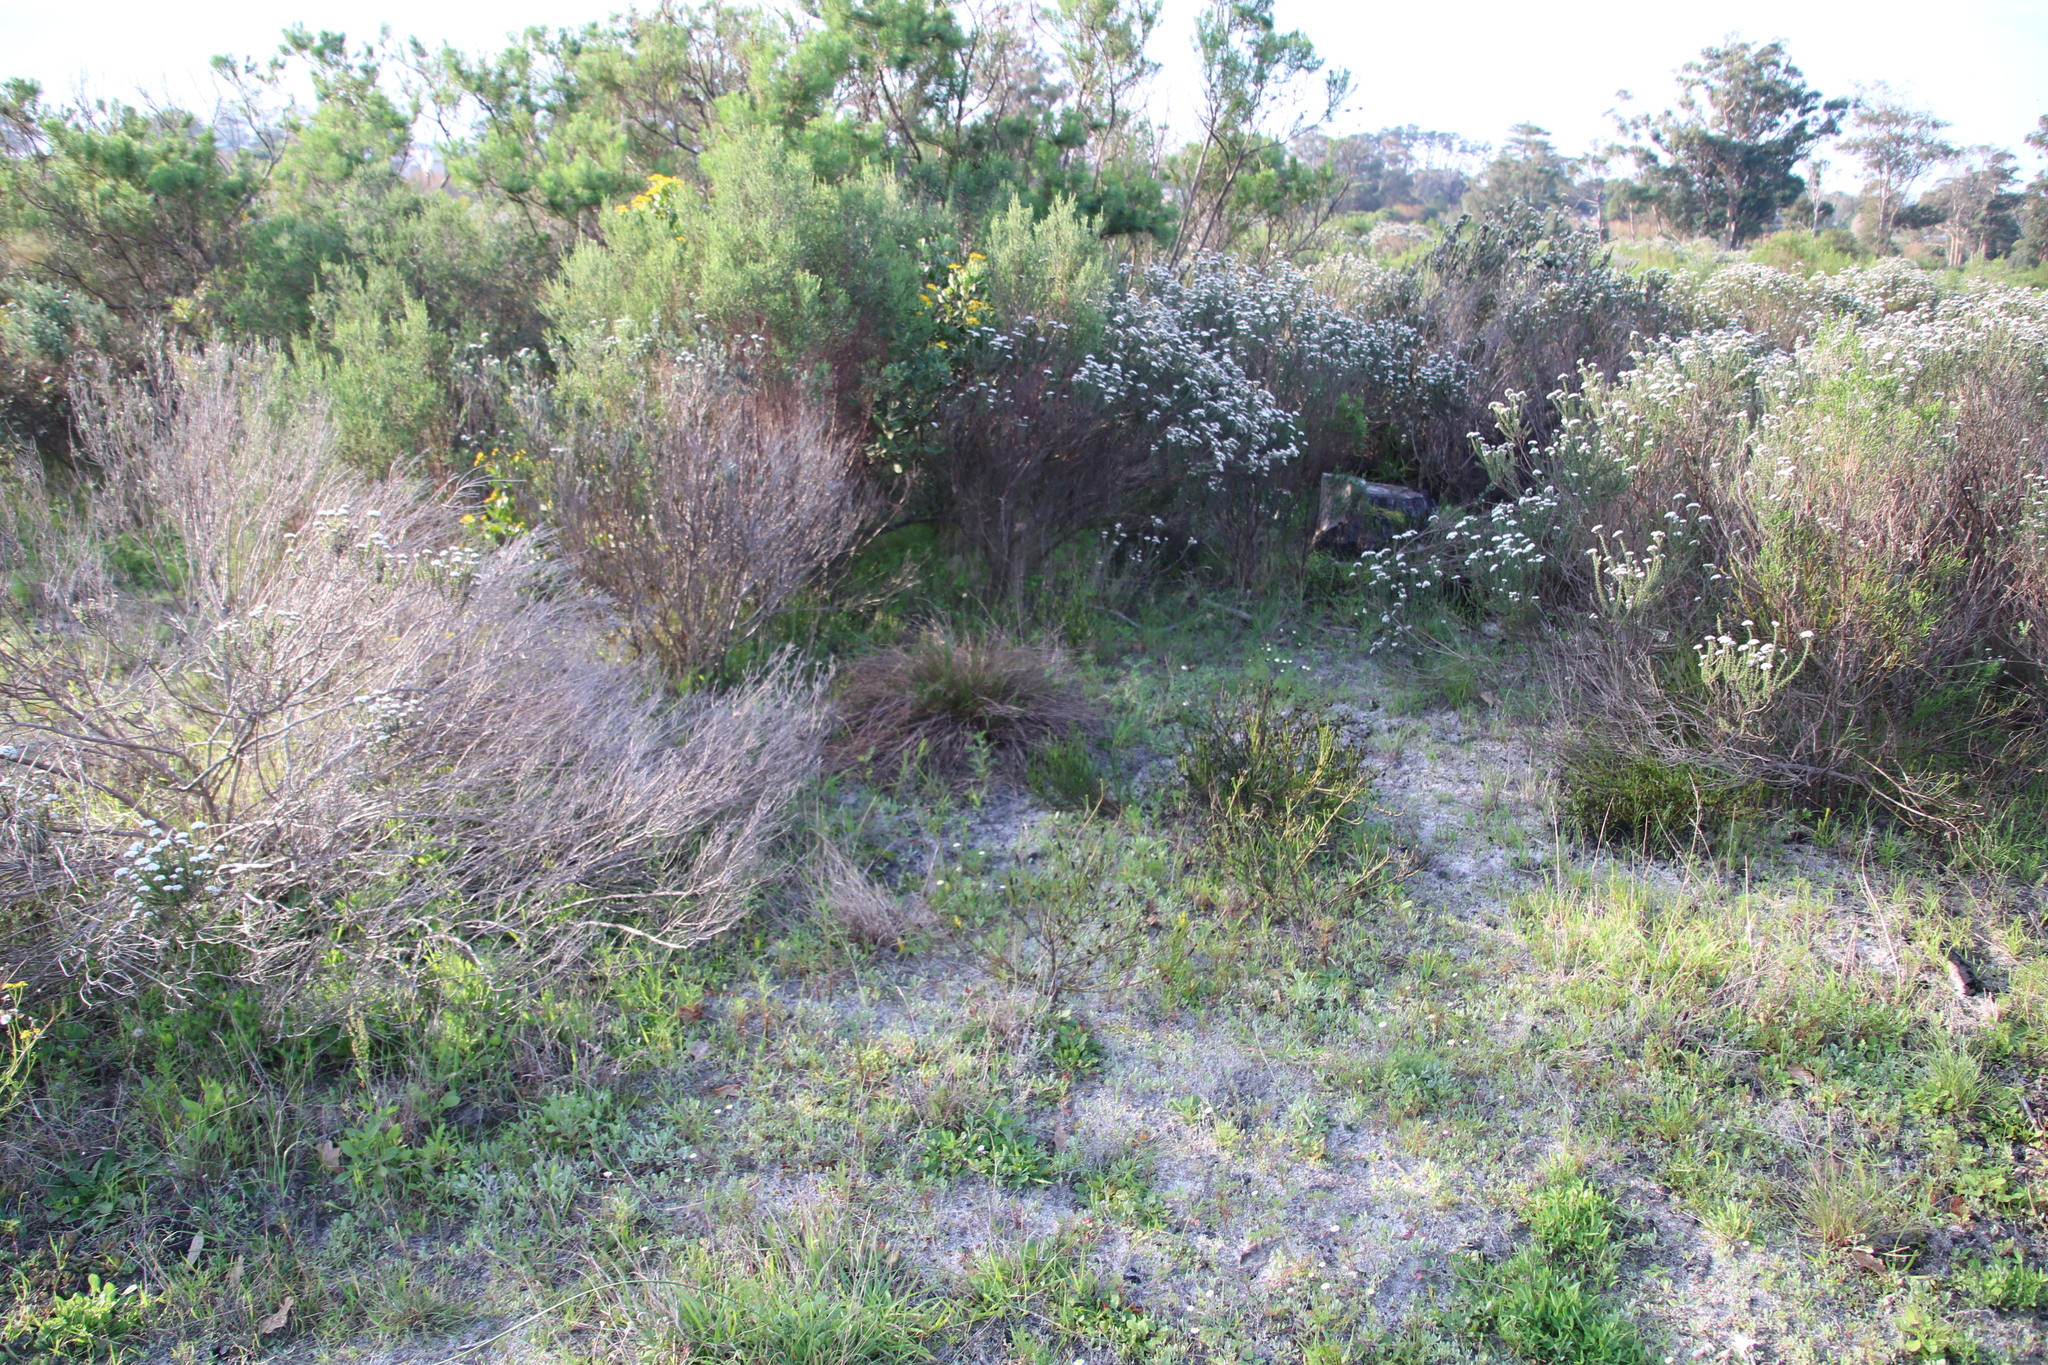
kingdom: Plantae
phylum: Tracheophyta
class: Liliopsida
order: Asparagales
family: Asparagaceae
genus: Lachenalia
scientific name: Lachenalia reflexa
